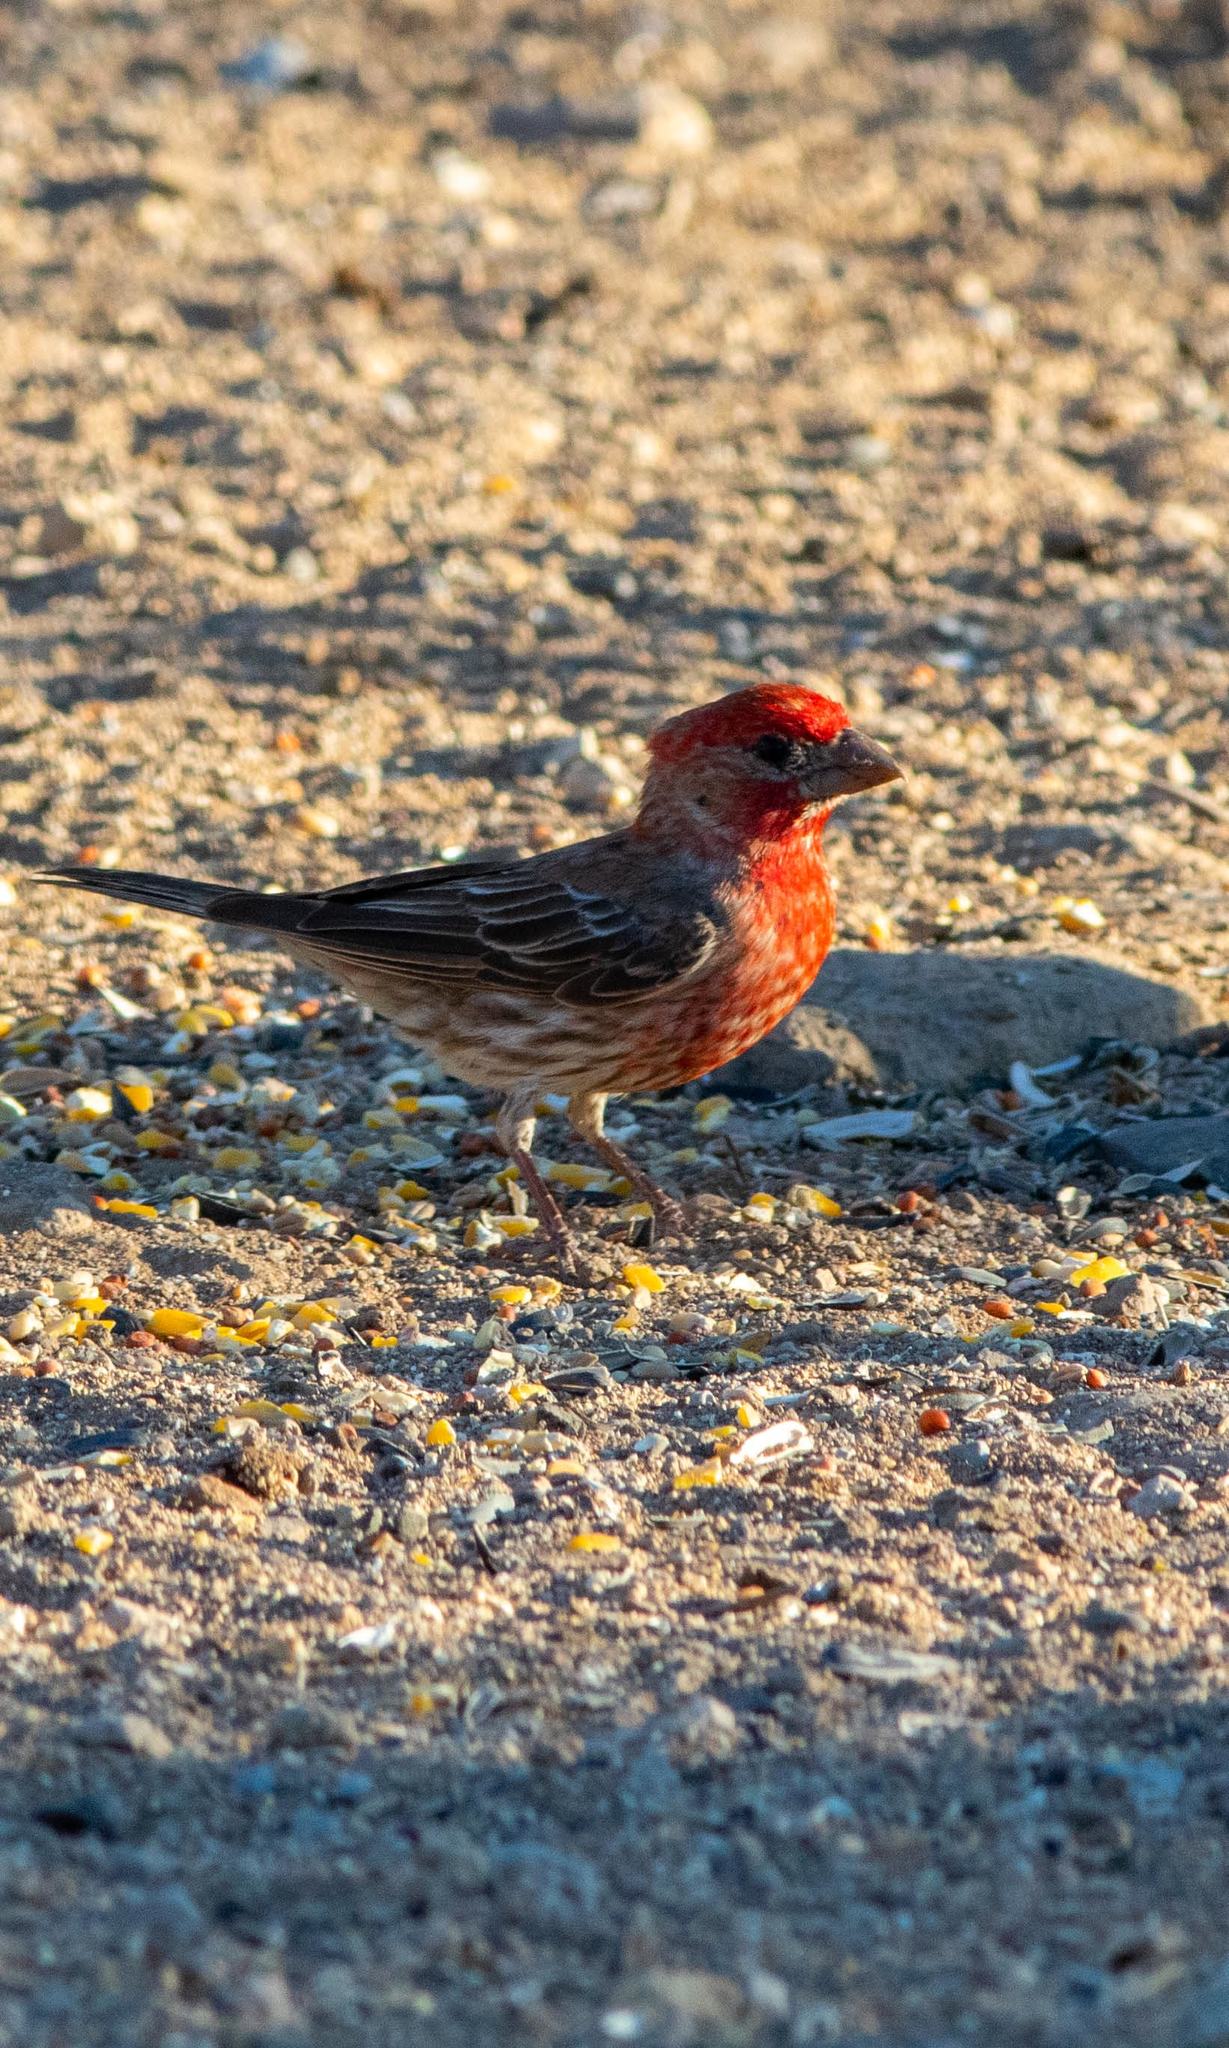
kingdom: Animalia
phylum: Chordata
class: Aves
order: Passeriformes
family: Fringillidae
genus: Haemorhous
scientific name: Haemorhous mexicanus
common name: House finch
